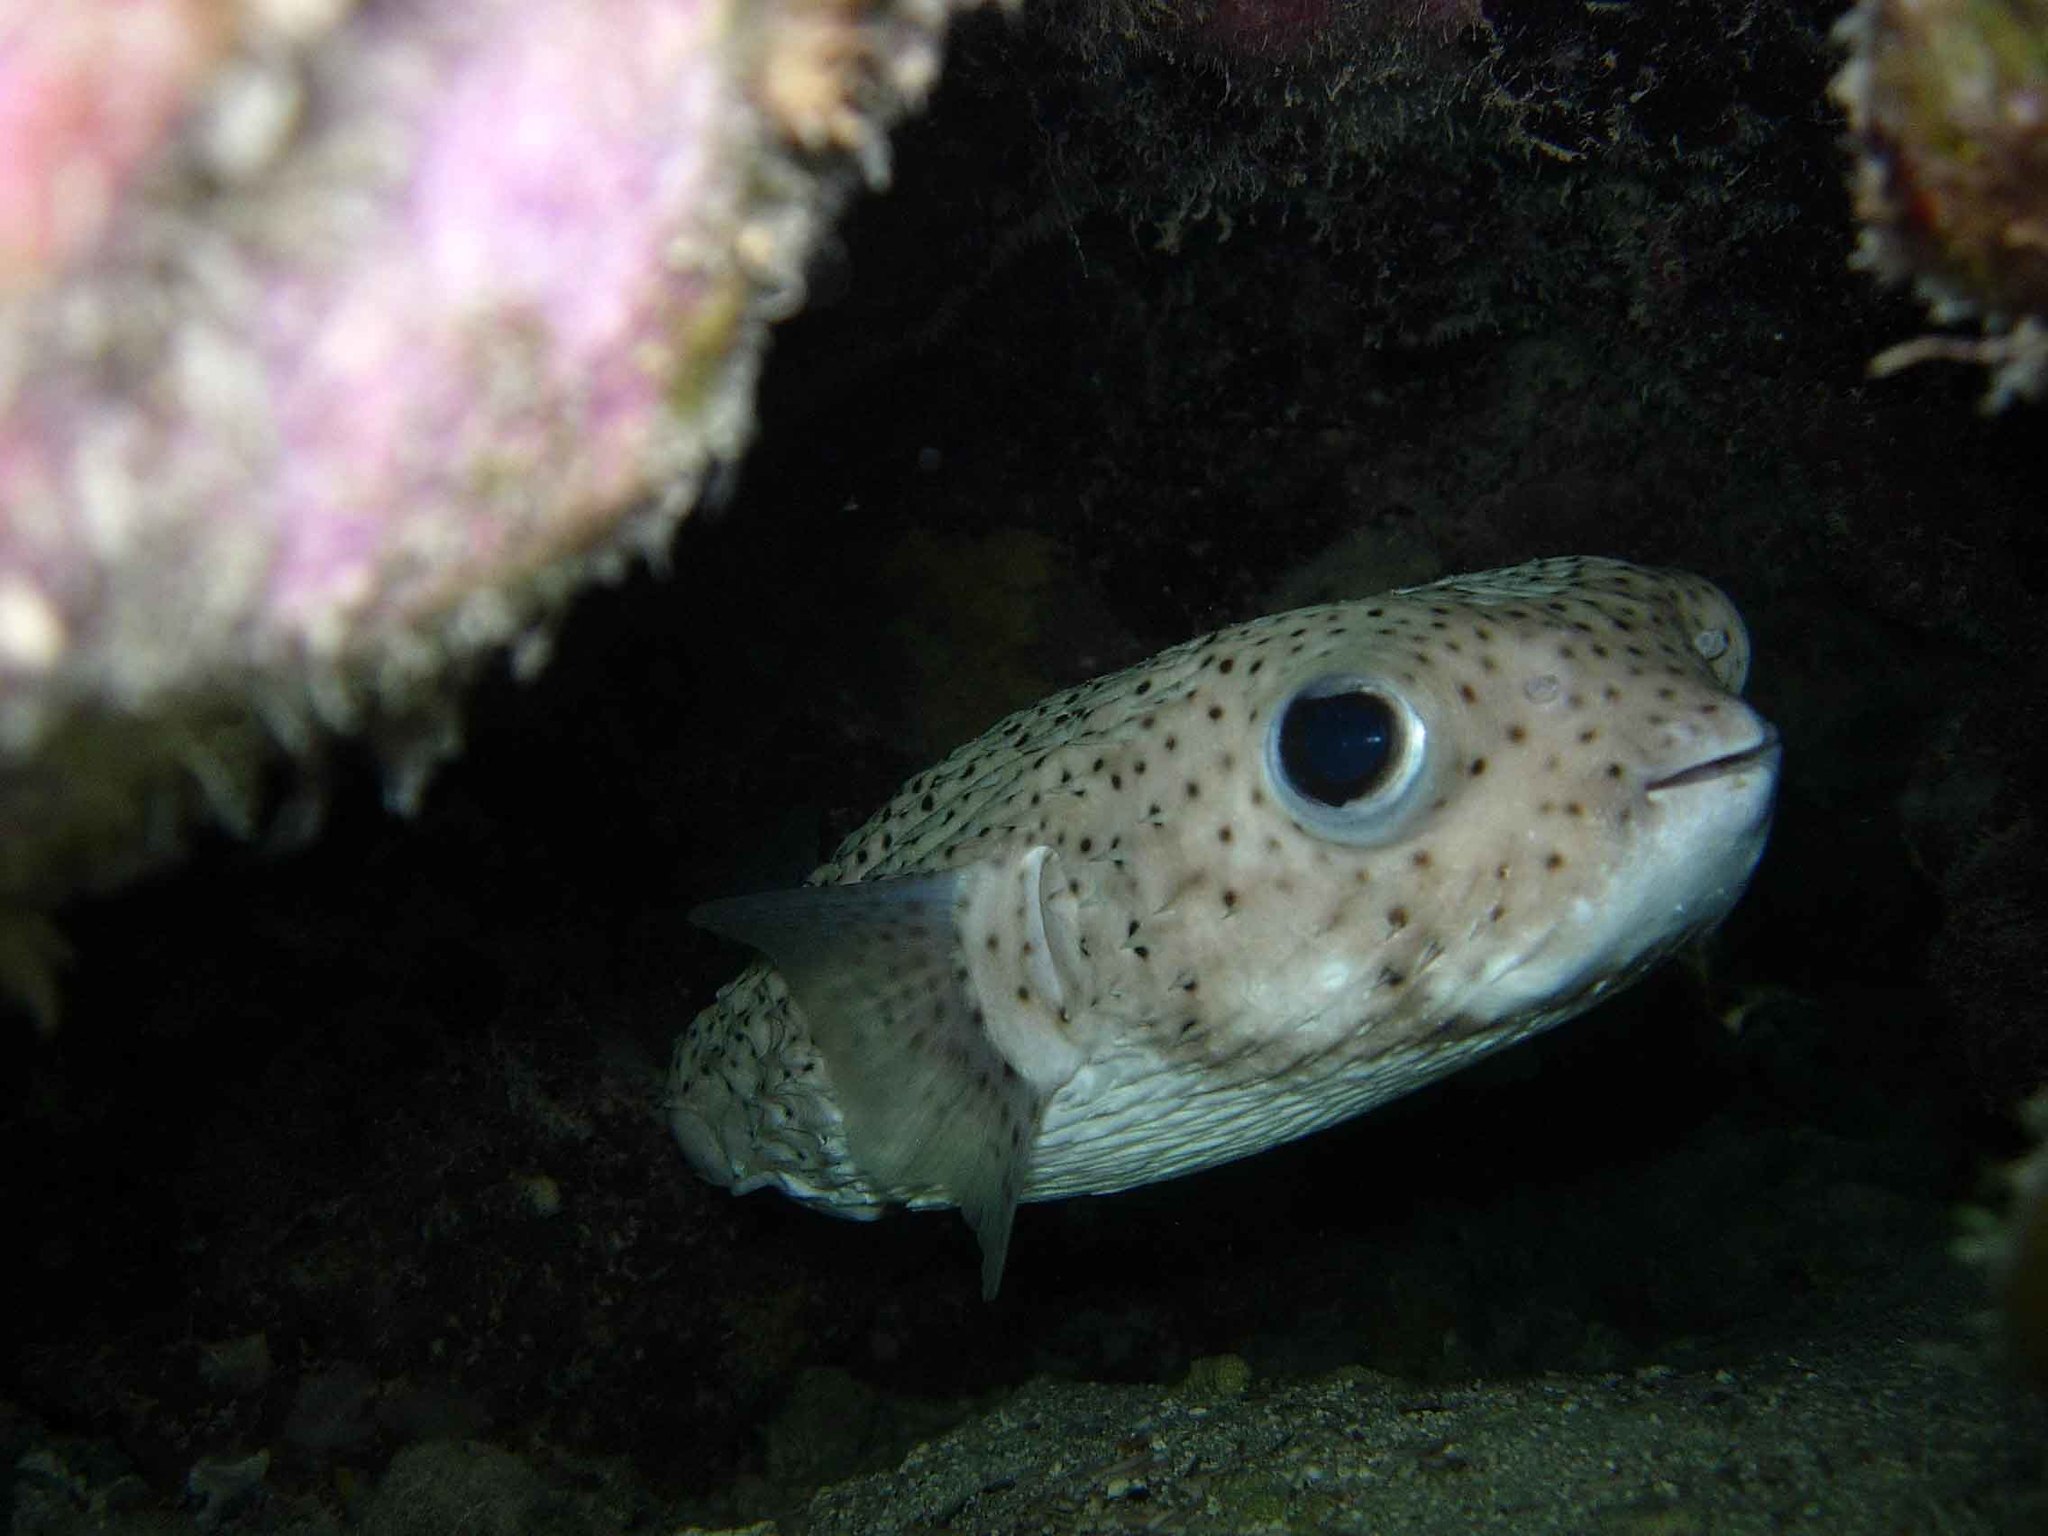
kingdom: Animalia
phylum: Chordata
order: Tetraodontiformes
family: Diodontidae
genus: Diodon
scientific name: Diodon hystrix
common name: Giant porcupinefish
